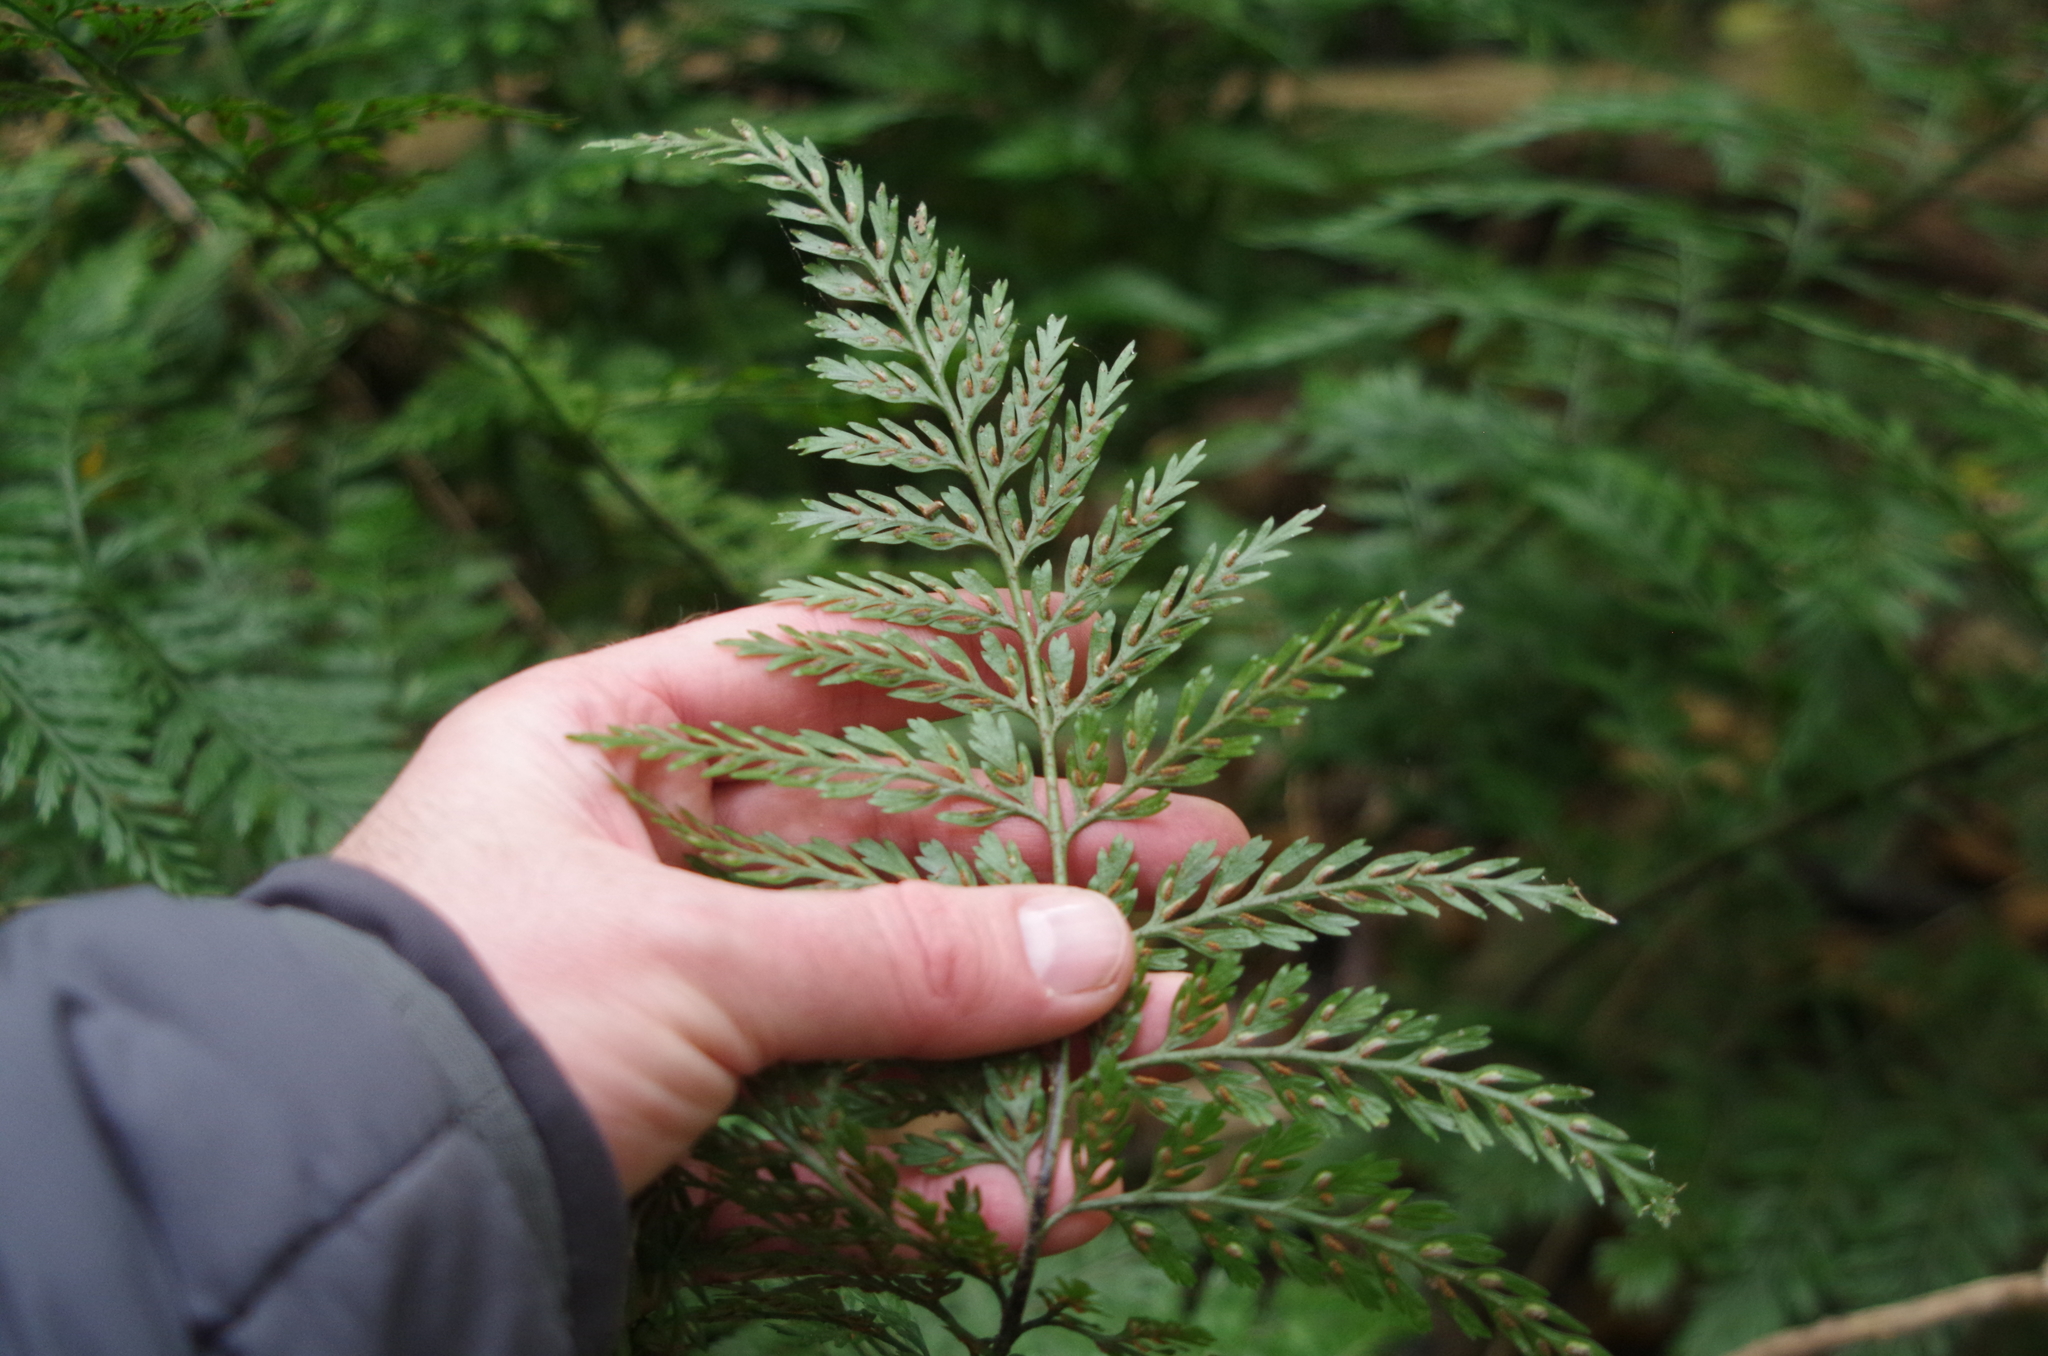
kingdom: Plantae
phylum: Tracheophyta
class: Polypodiopsida
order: Polypodiales
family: Aspleniaceae
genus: Asplenium
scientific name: Asplenium
